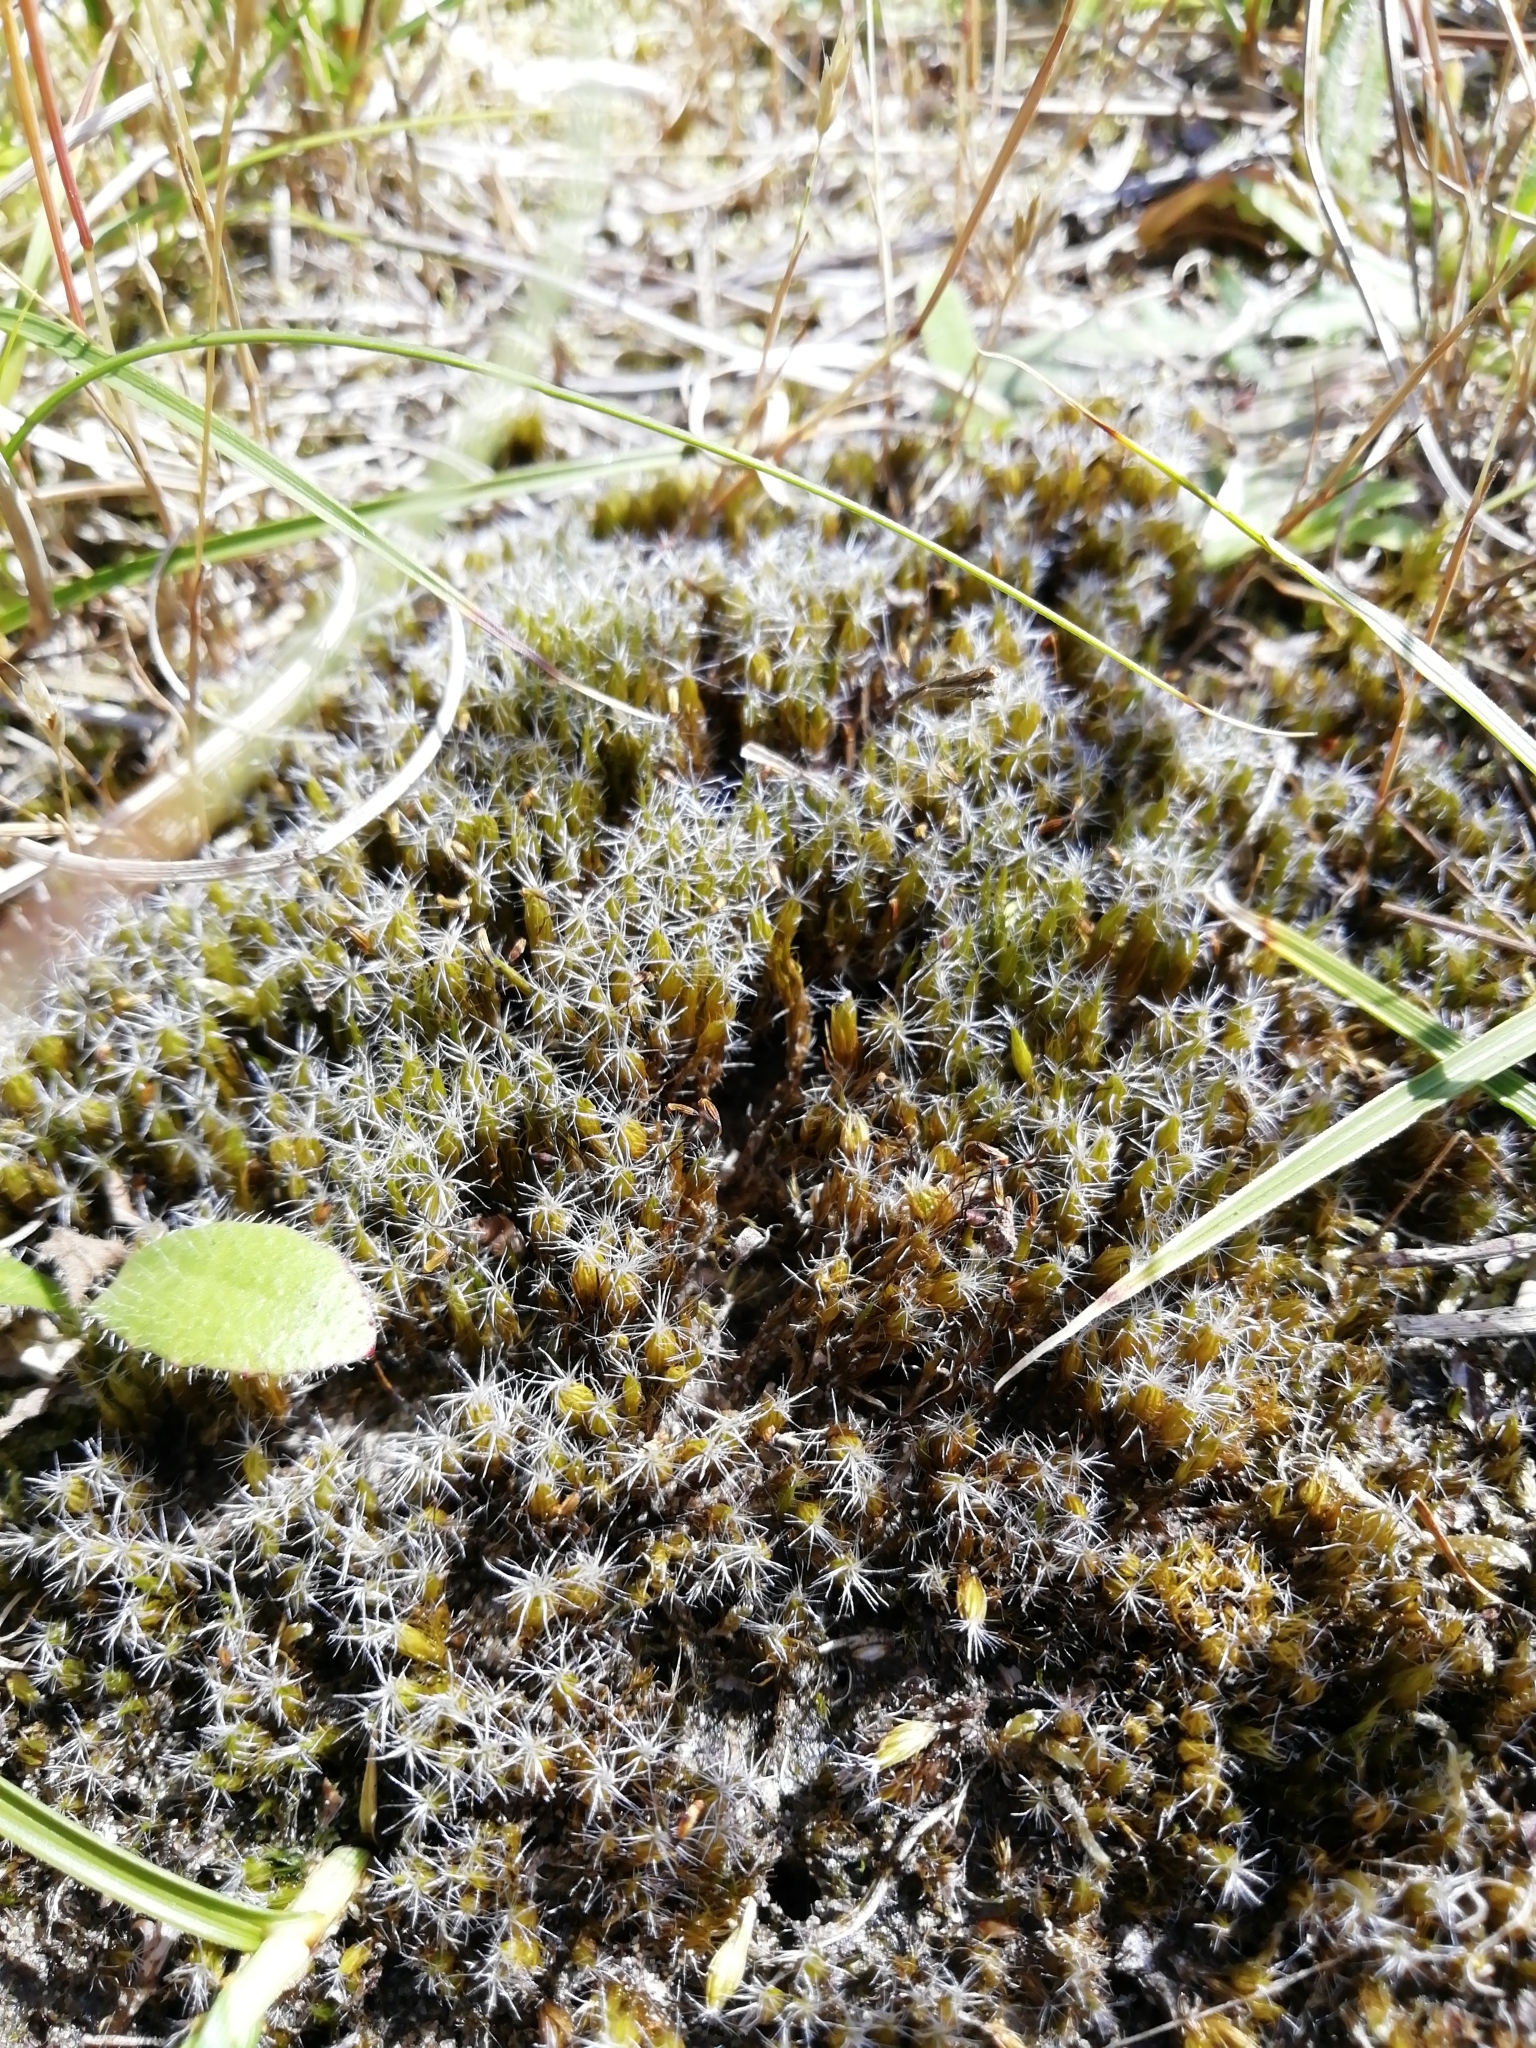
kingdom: Plantae
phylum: Bryophyta
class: Bryopsida
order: Dicranales
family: Leucobryaceae
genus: Campylopus
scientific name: Campylopus introflexus
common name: Heath star moss
